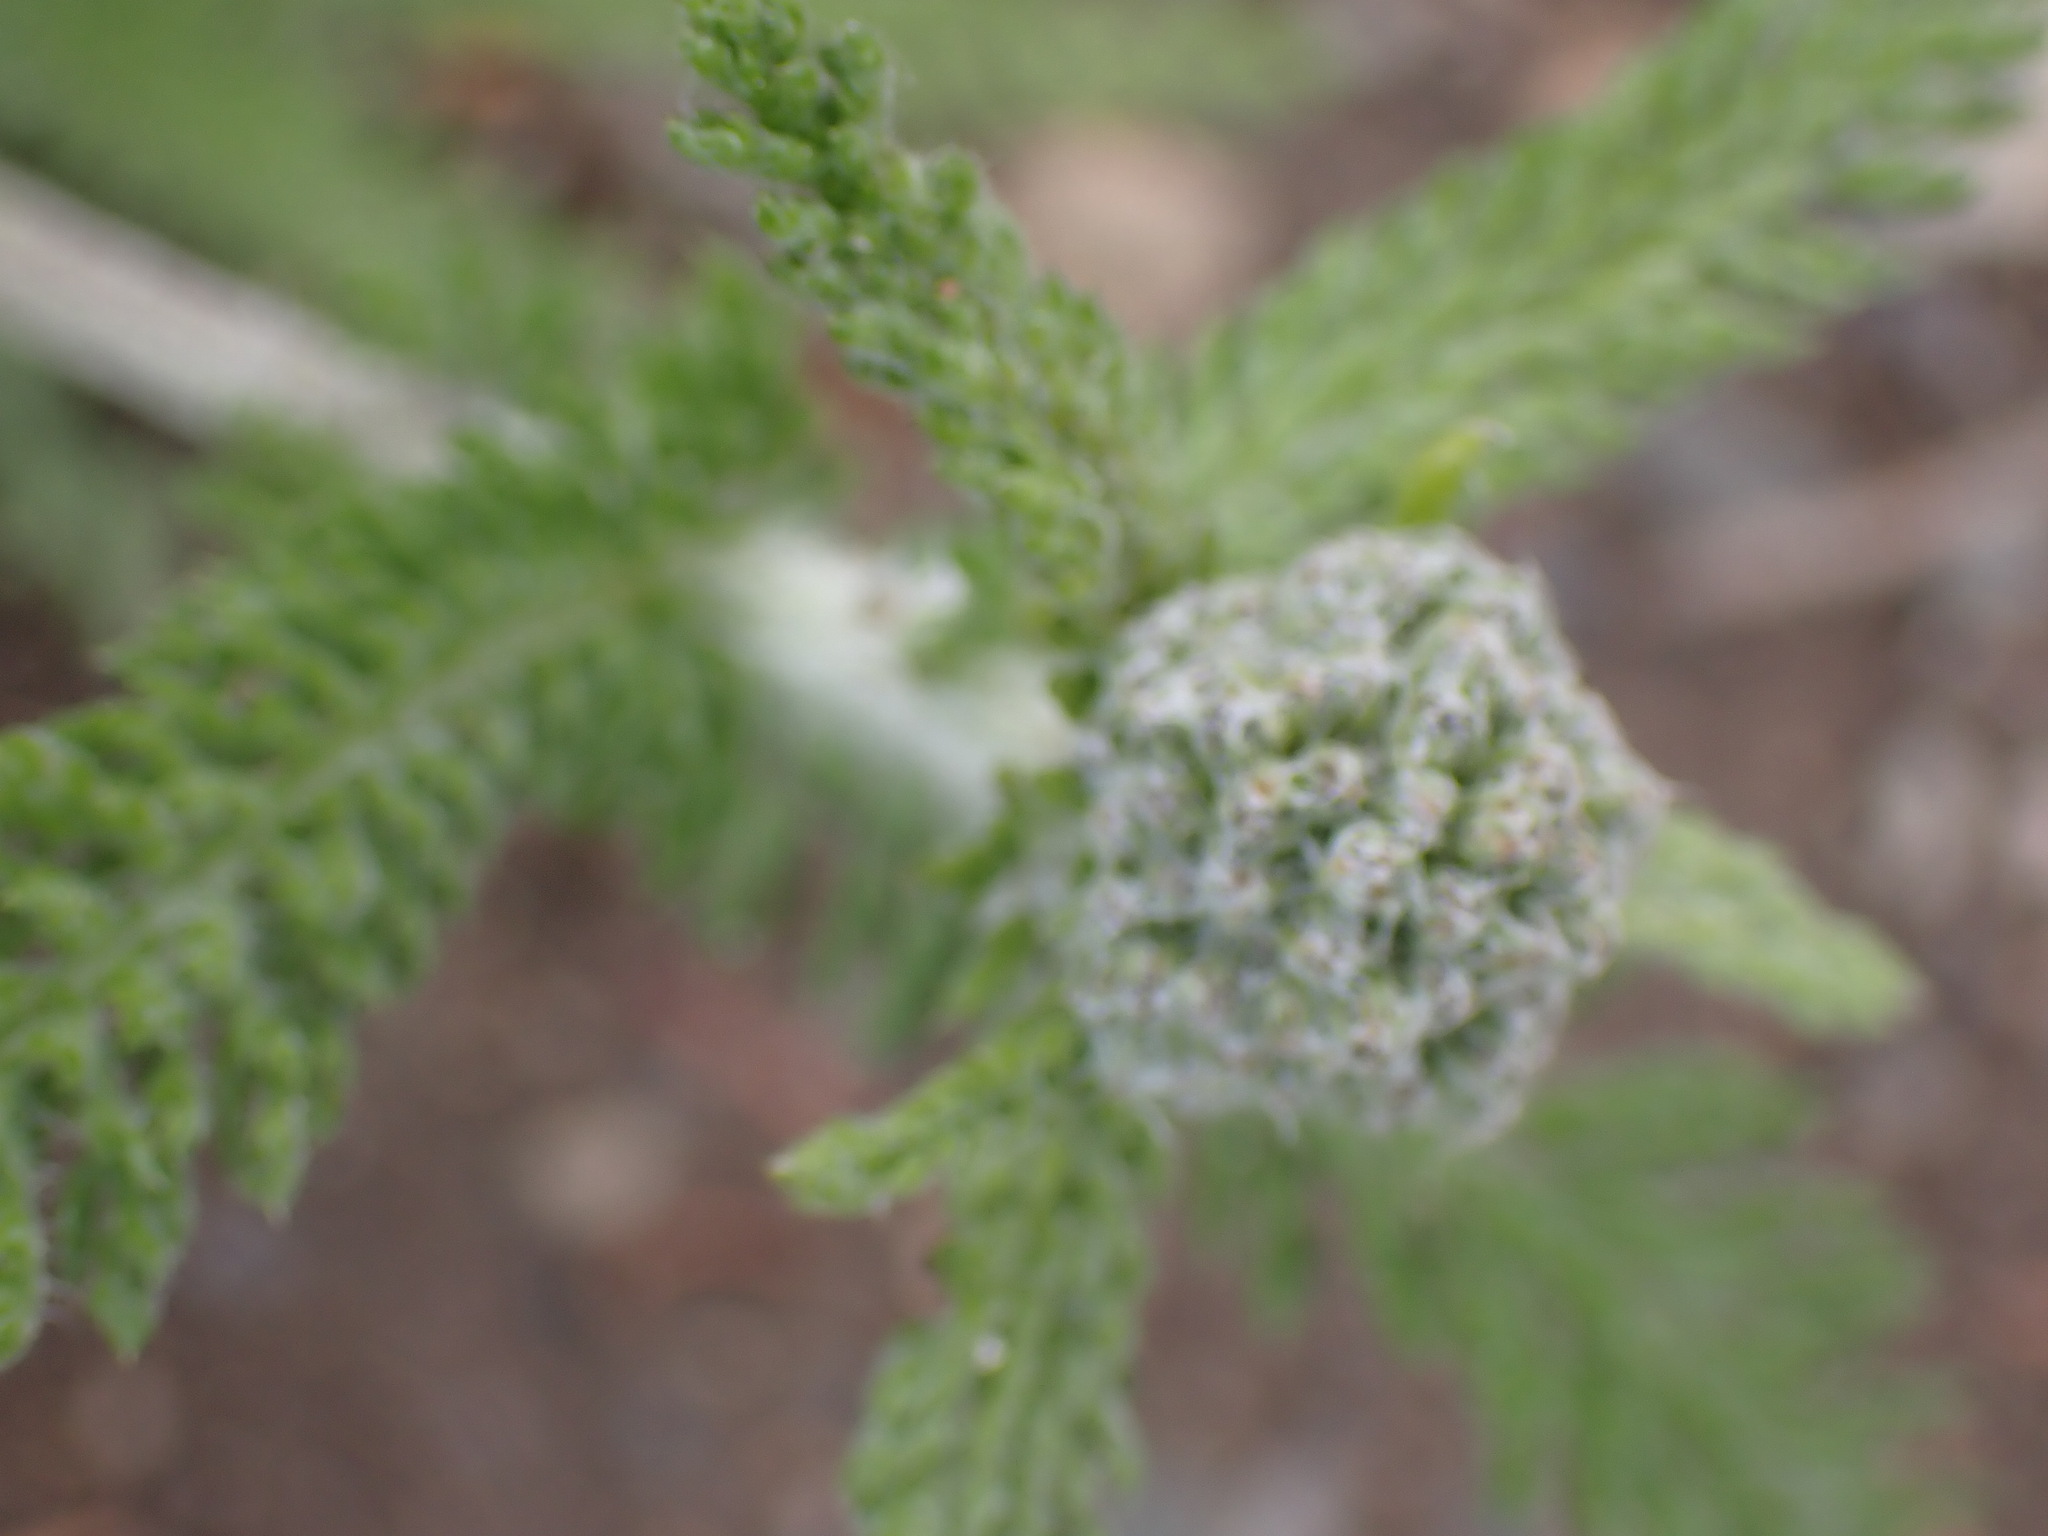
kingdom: Plantae
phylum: Tracheophyta
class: Magnoliopsida
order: Asterales
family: Asteraceae
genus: Achillea
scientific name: Achillea millefolium
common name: Yarrow
